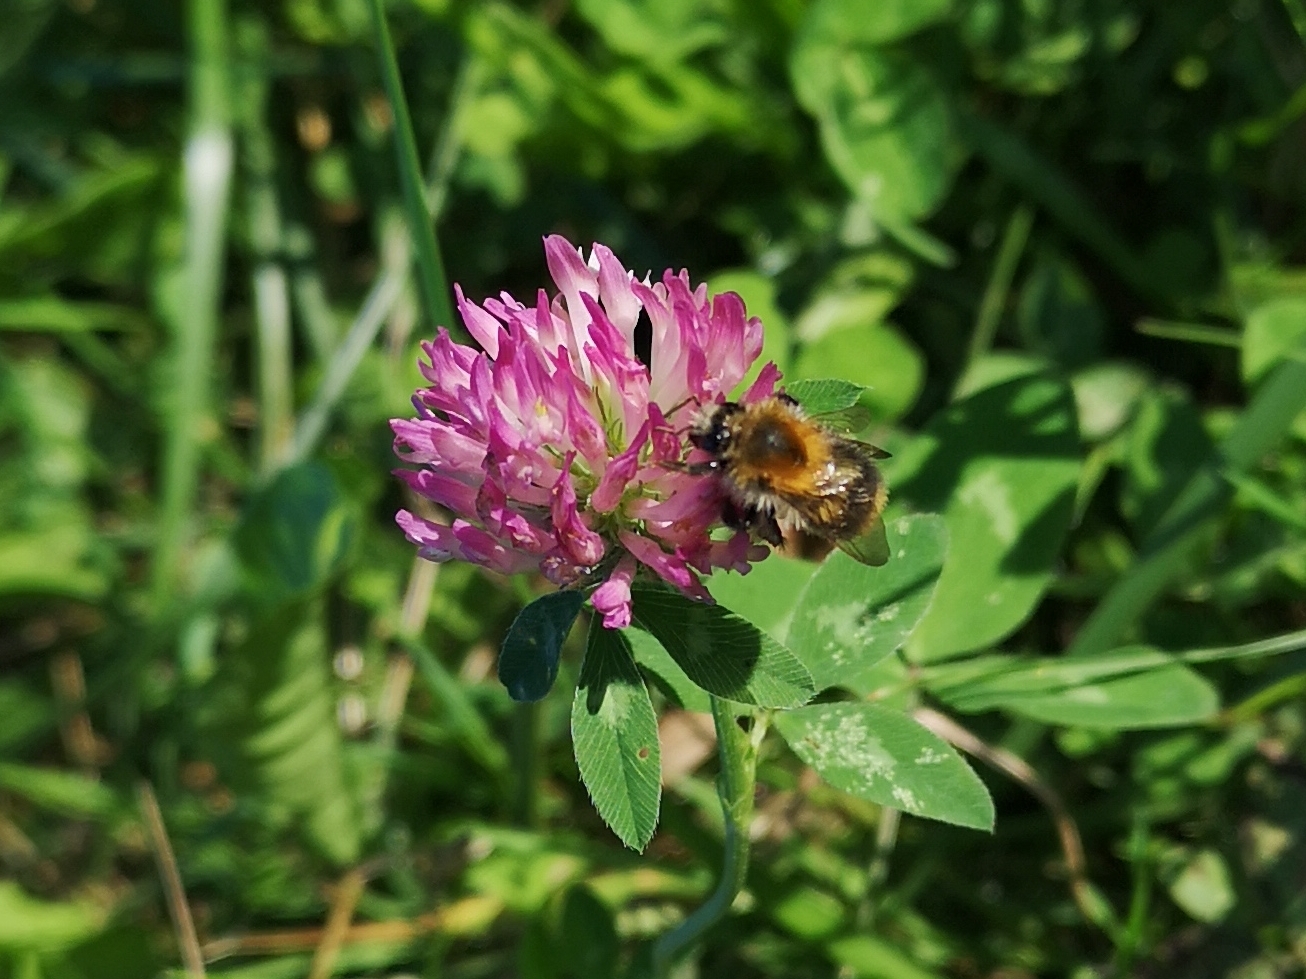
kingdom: Animalia
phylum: Arthropoda
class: Insecta
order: Hymenoptera
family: Apidae
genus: Bombus
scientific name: Bombus pascuorum
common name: Common carder bee
